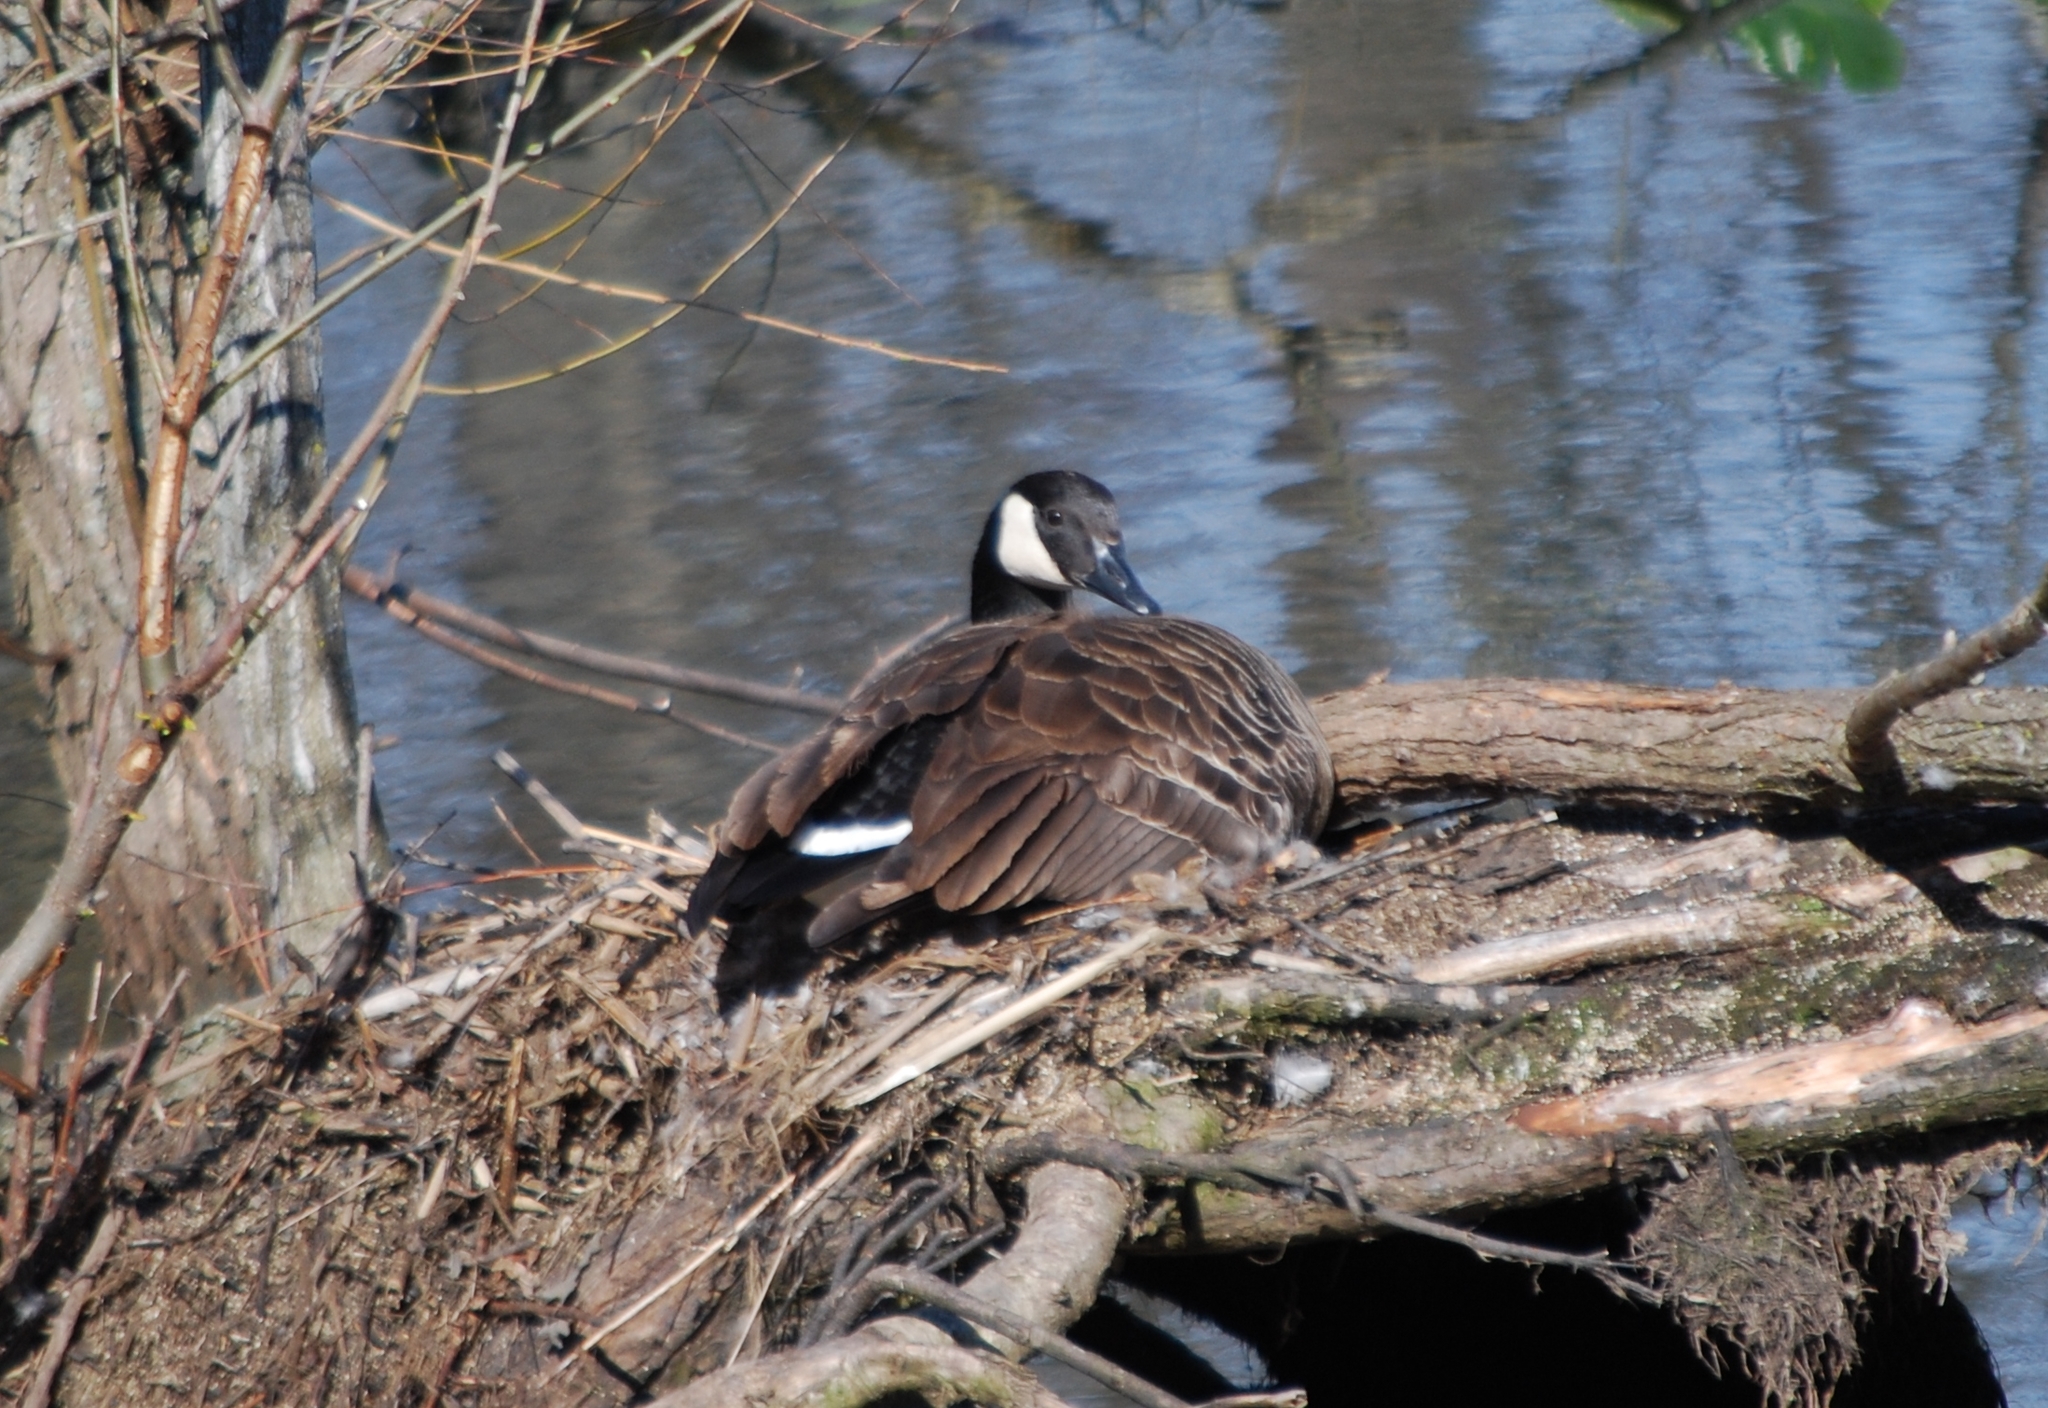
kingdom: Animalia
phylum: Chordata
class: Aves
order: Anseriformes
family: Anatidae
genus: Branta
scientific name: Branta canadensis
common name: Canada goose
